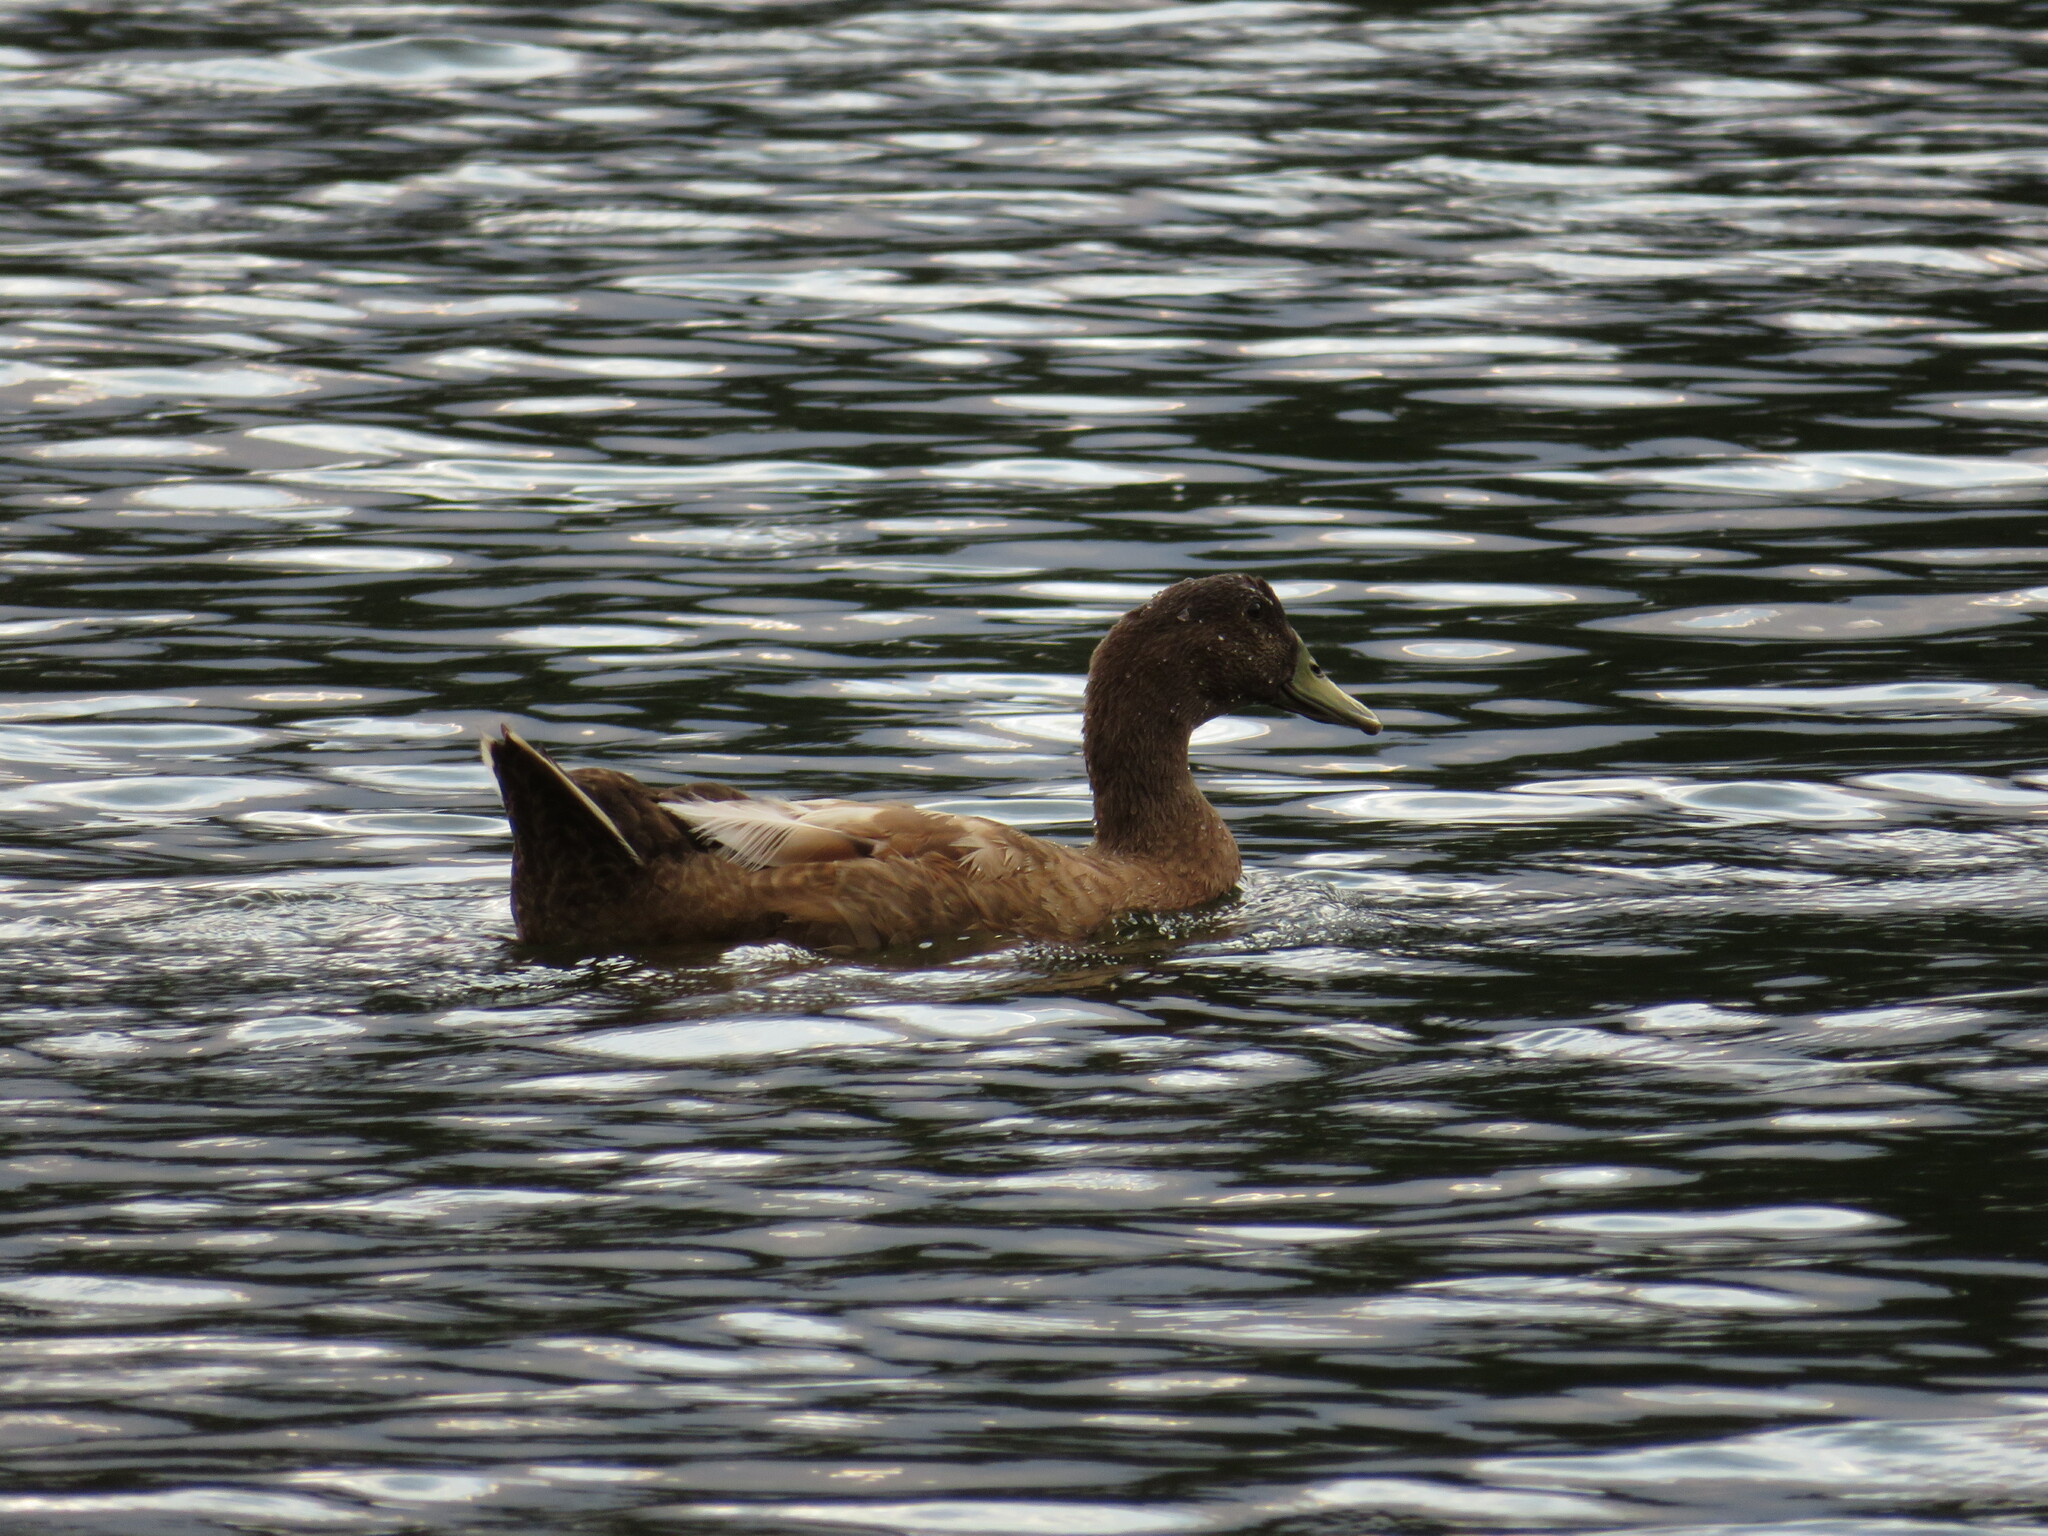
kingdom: Animalia
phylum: Chordata
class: Aves
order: Anseriformes
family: Anatidae
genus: Anas
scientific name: Anas platyrhynchos
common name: Mallard
